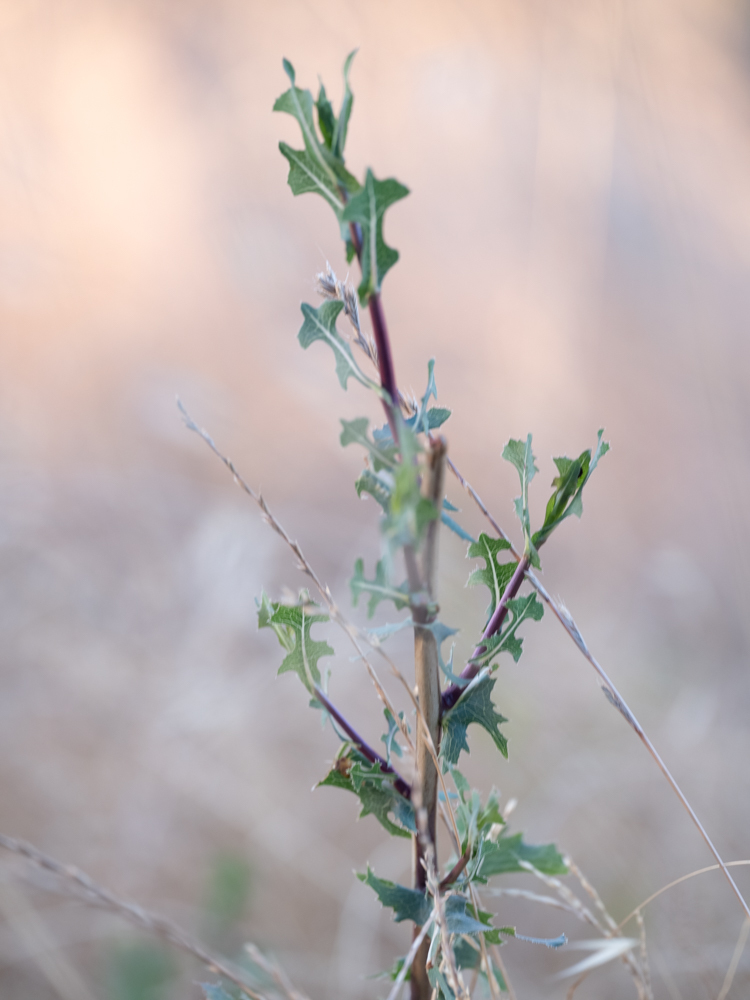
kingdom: Plantae
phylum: Tracheophyta
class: Magnoliopsida
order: Asterales
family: Asteraceae
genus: Lactuca
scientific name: Lactuca serriola
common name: Prickly lettuce
